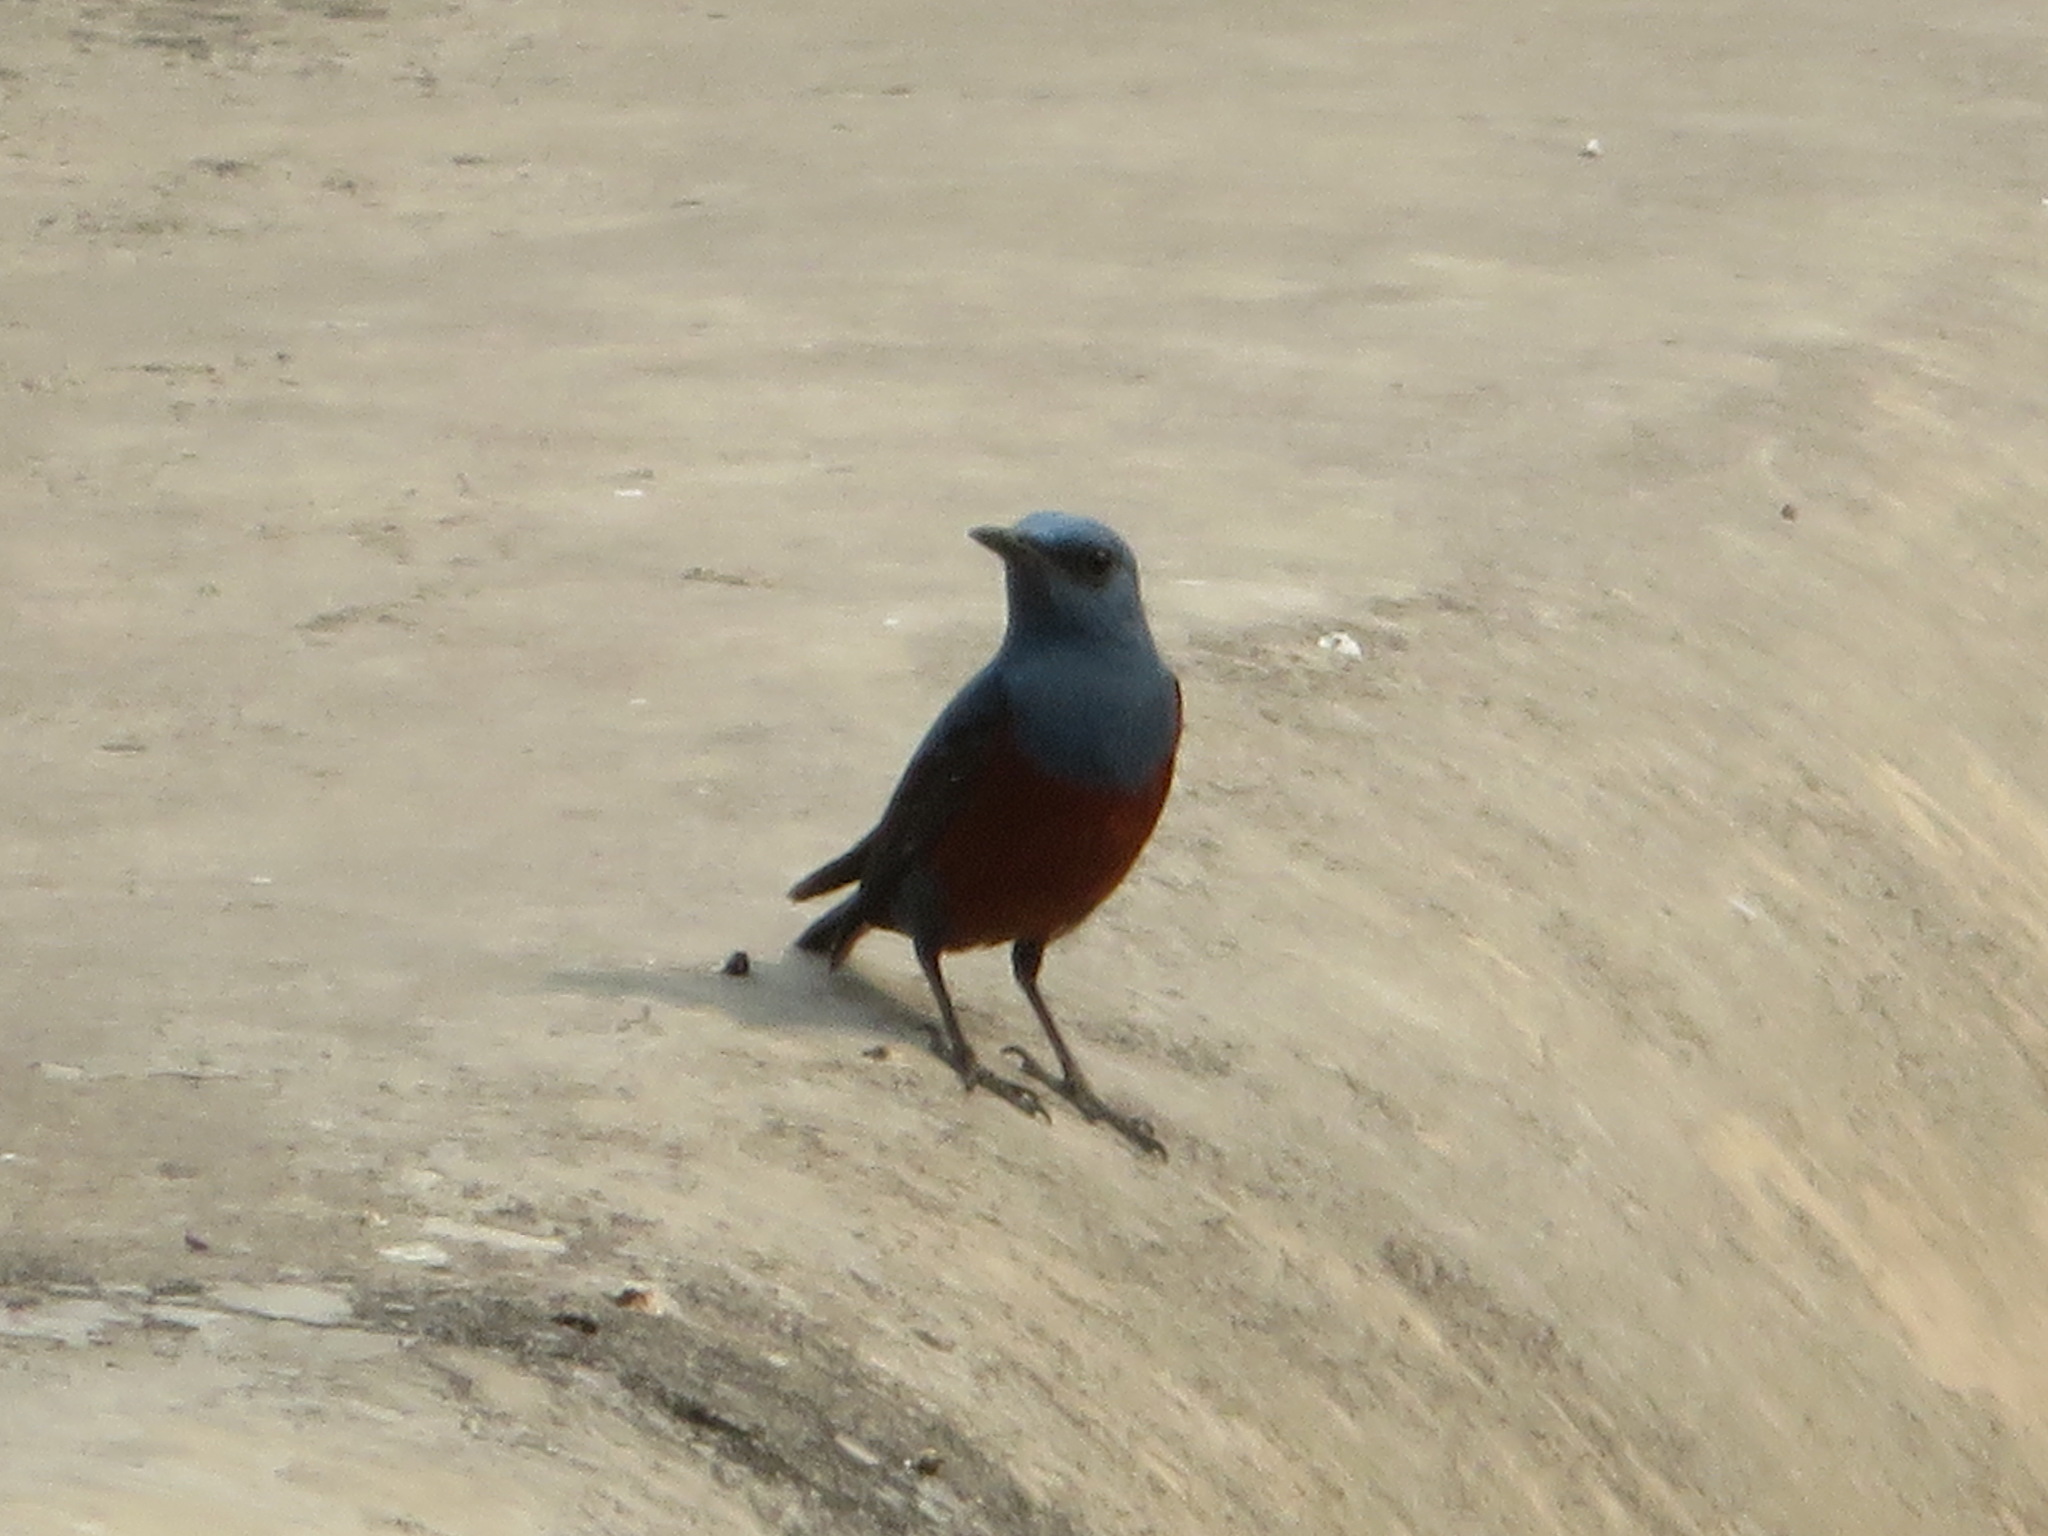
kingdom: Animalia
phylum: Chordata
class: Aves
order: Passeriformes
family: Muscicapidae
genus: Monticola
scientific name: Monticola solitarius
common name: Blue rock thrush
